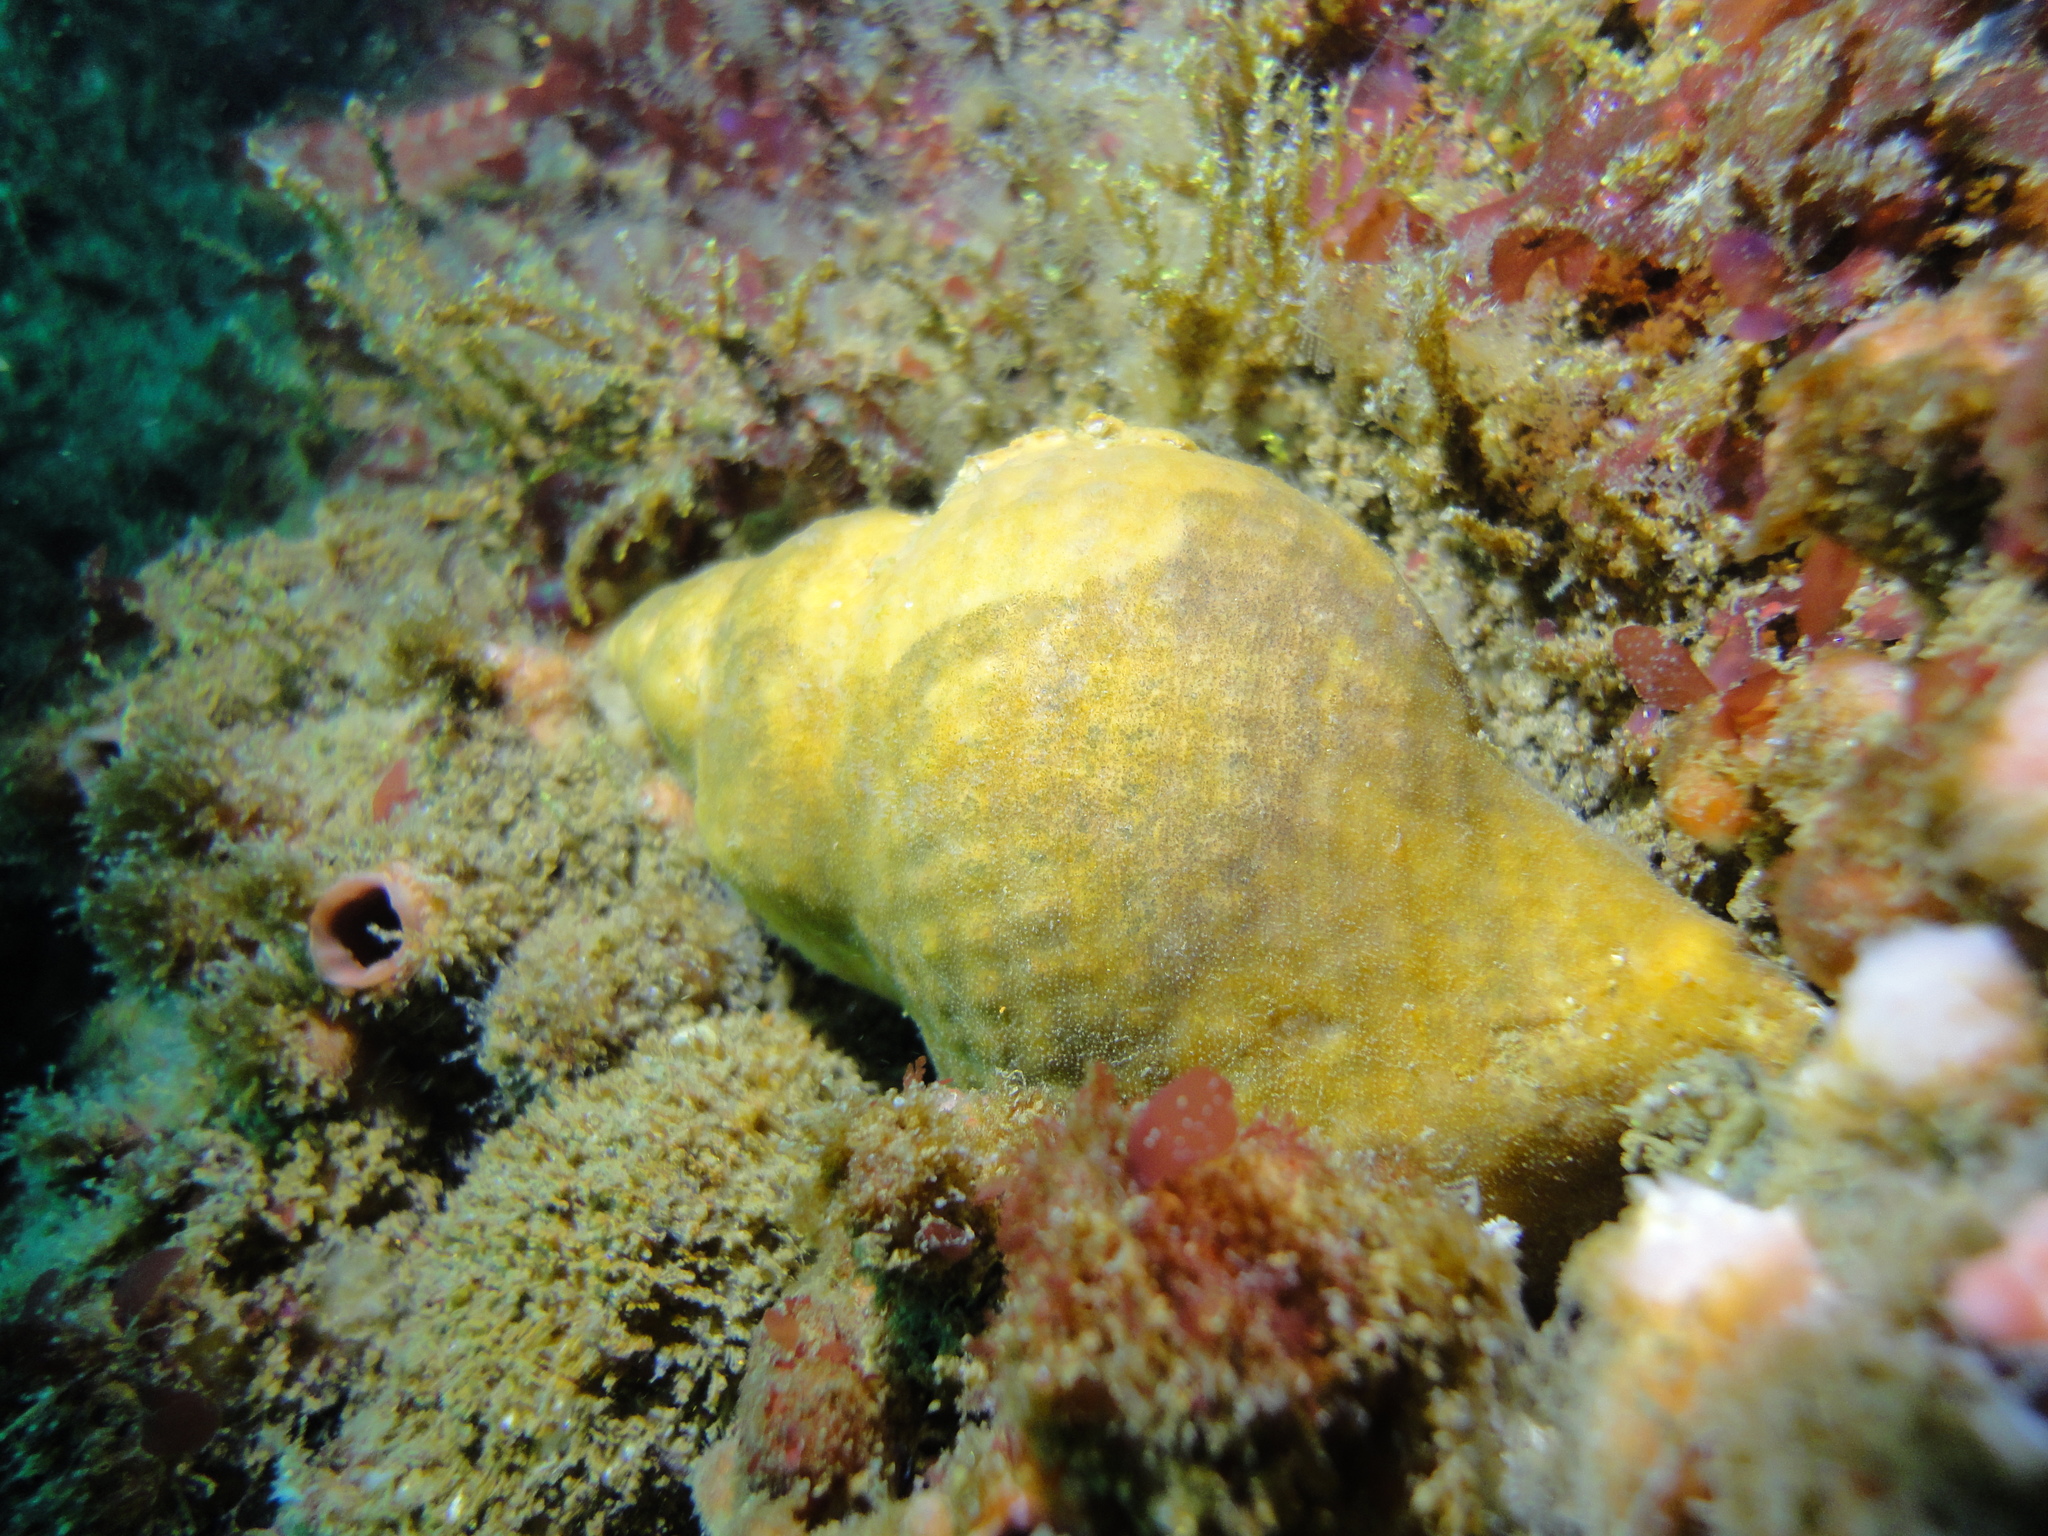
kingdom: Animalia
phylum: Mollusca
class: Gastropoda
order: Littorinimorpha
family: Cymatiidae
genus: Argobuccinum
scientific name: Argobuccinum pustulosum
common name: Pustular triton
